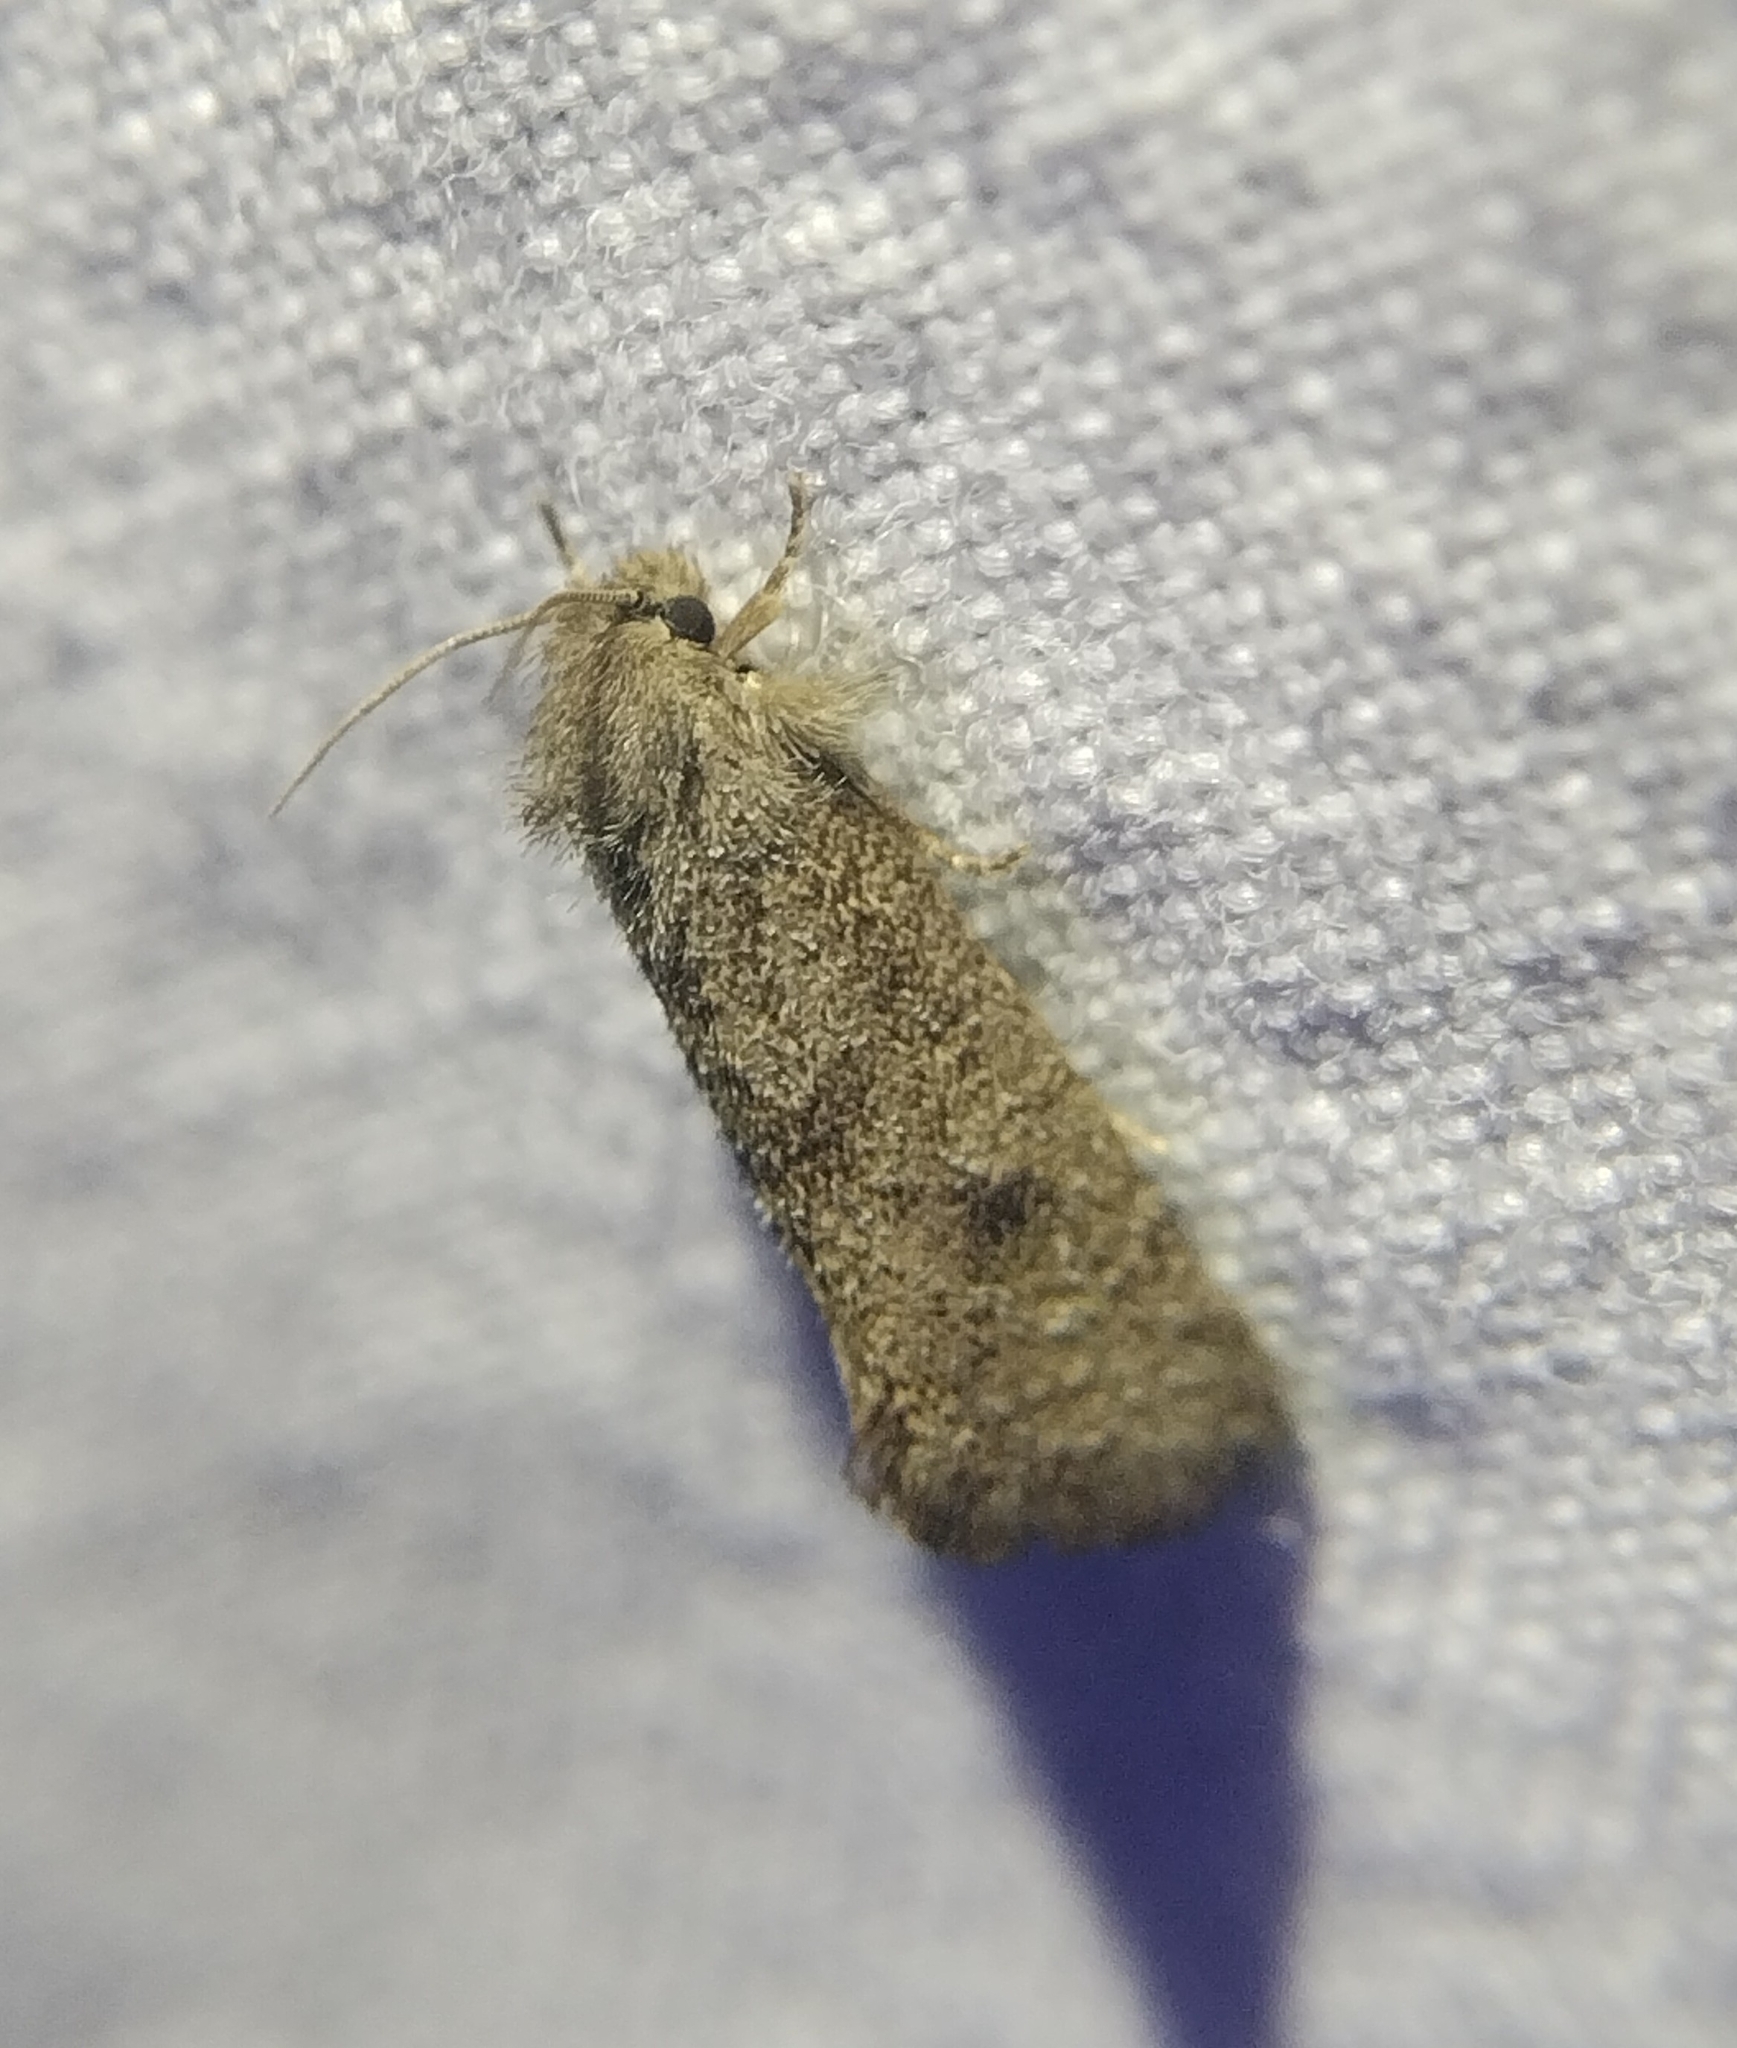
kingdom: Animalia
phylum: Arthropoda
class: Insecta
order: Lepidoptera
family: Tineidae
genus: Acrolophus
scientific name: Acrolophus heppneri
